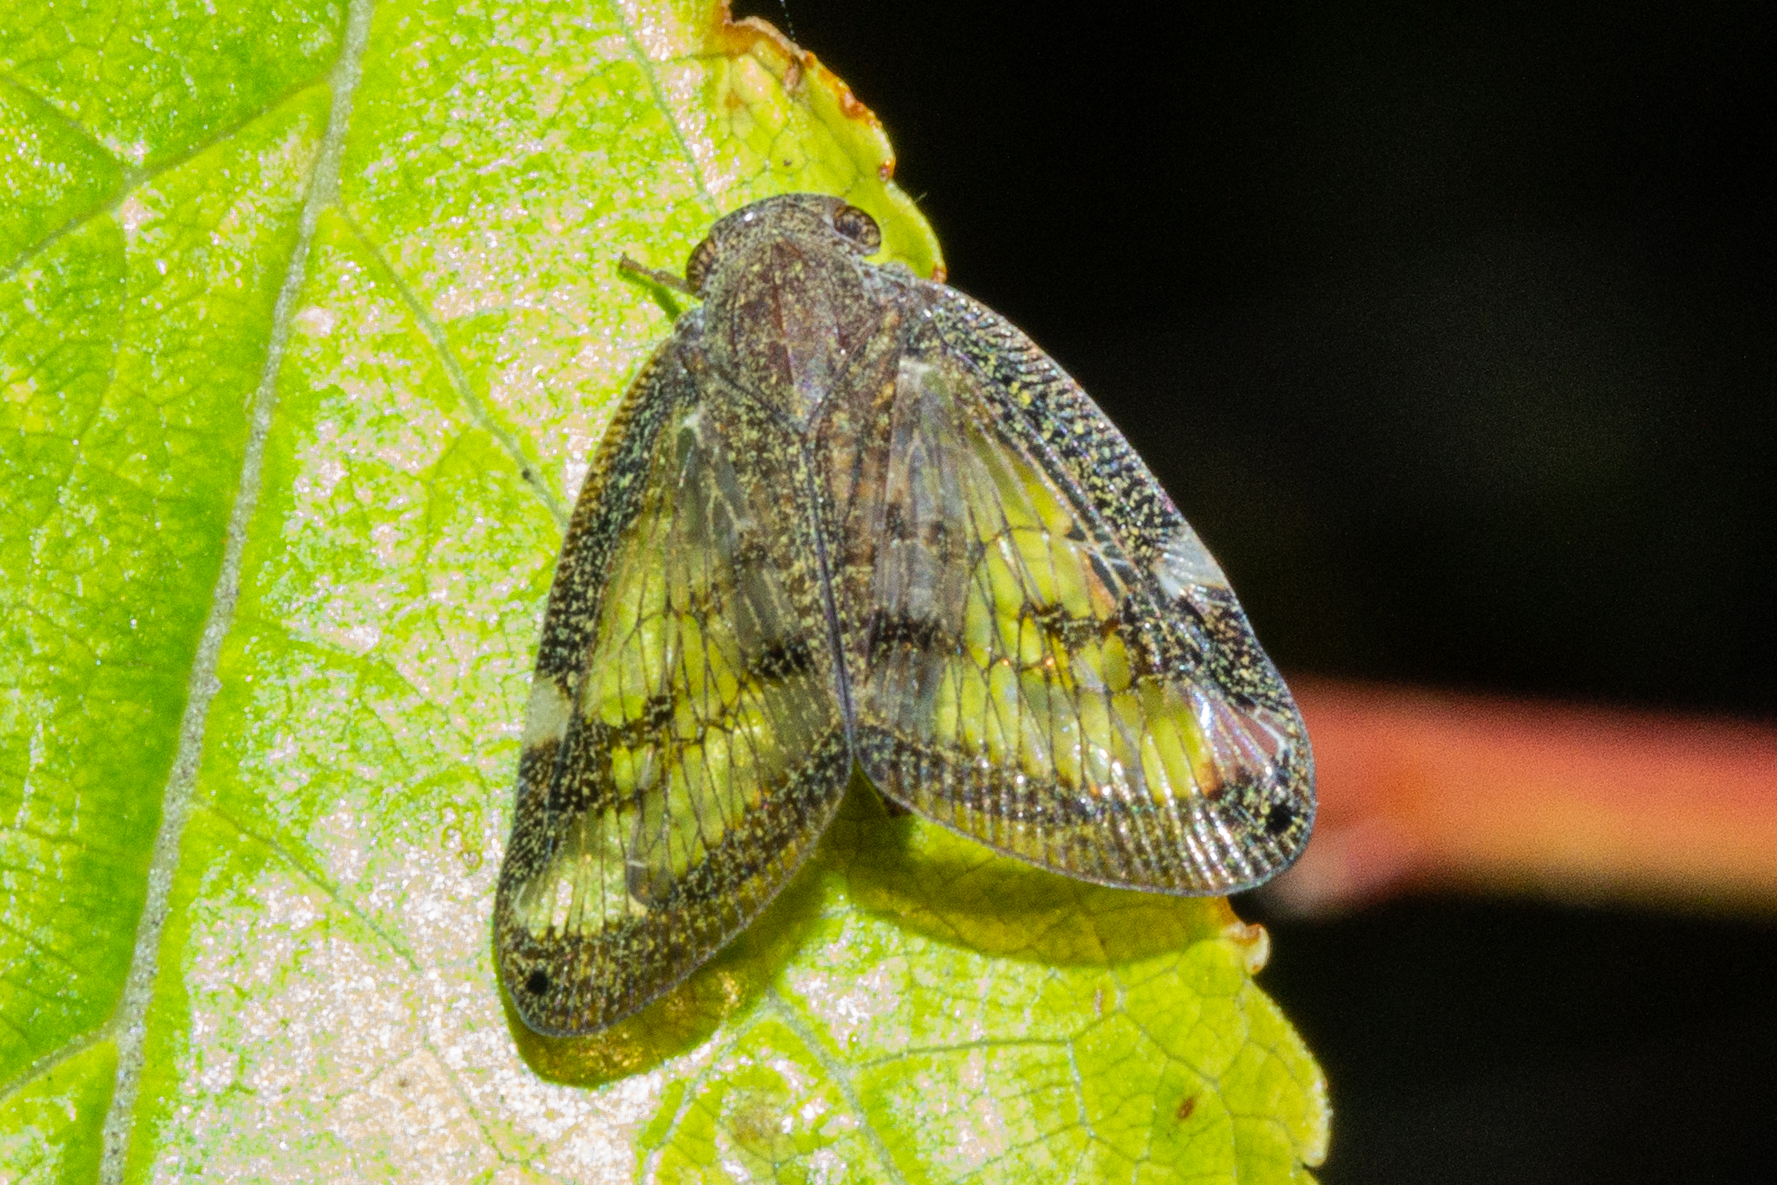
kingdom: Animalia
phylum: Arthropoda
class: Insecta
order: Hemiptera
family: Ricaniidae
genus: Scolypopa
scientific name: Scolypopa australis
